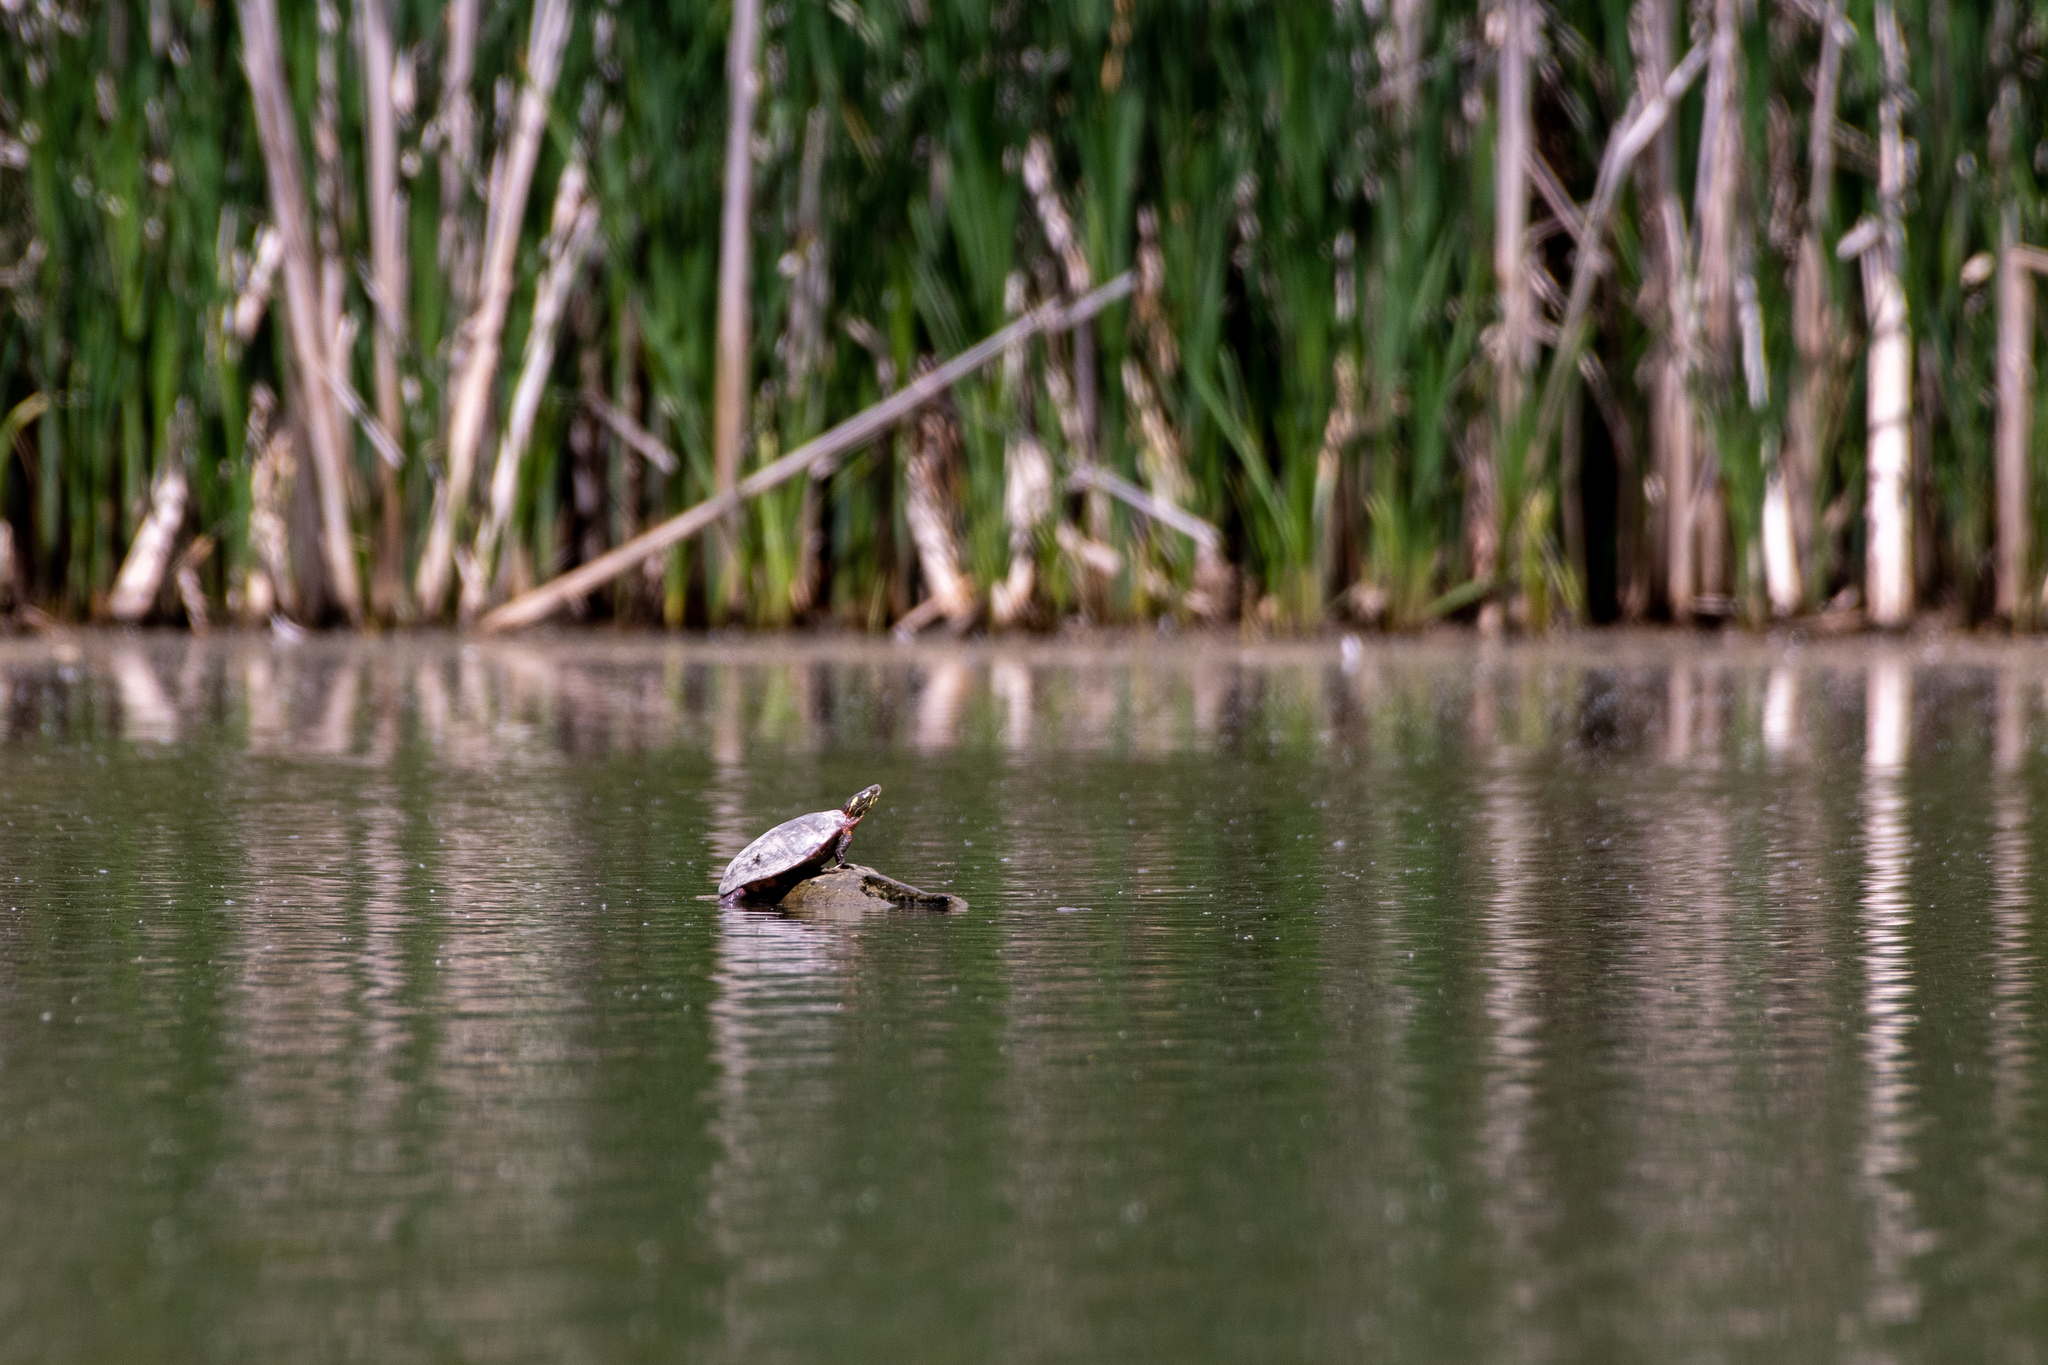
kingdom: Animalia
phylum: Chordata
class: Testudines
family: Emydidae
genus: Chrysemys
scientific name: Chrysemys picta
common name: Painted turtle
